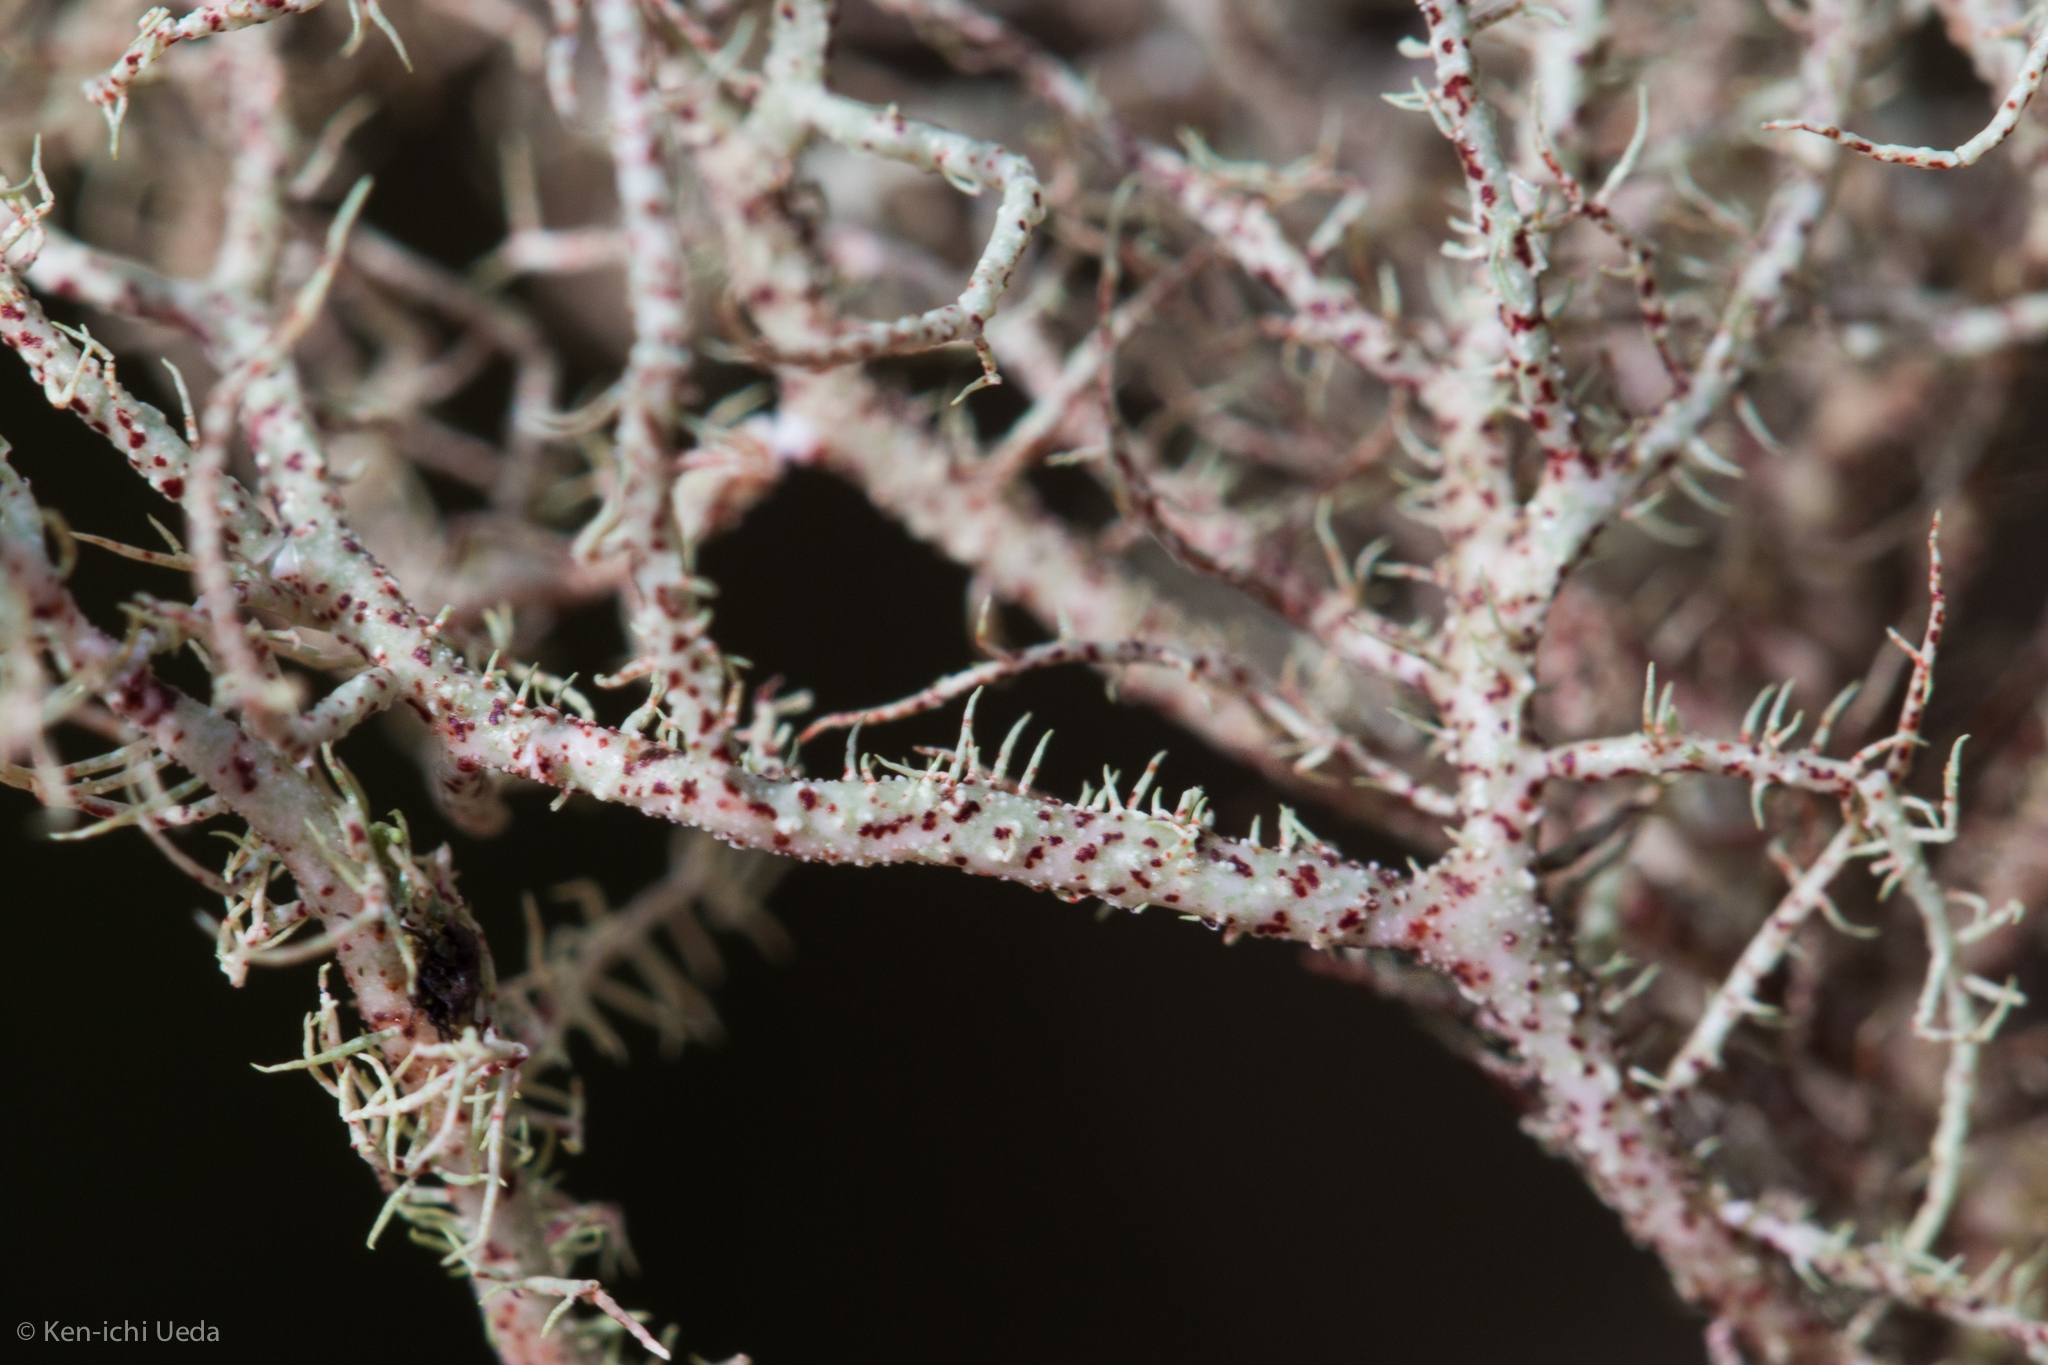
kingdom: Fungi
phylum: Ascomycota
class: Lecanoromycetes
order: Lecanorales
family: Parmeliaceae
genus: Usnea
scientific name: Usnea flavocardia
